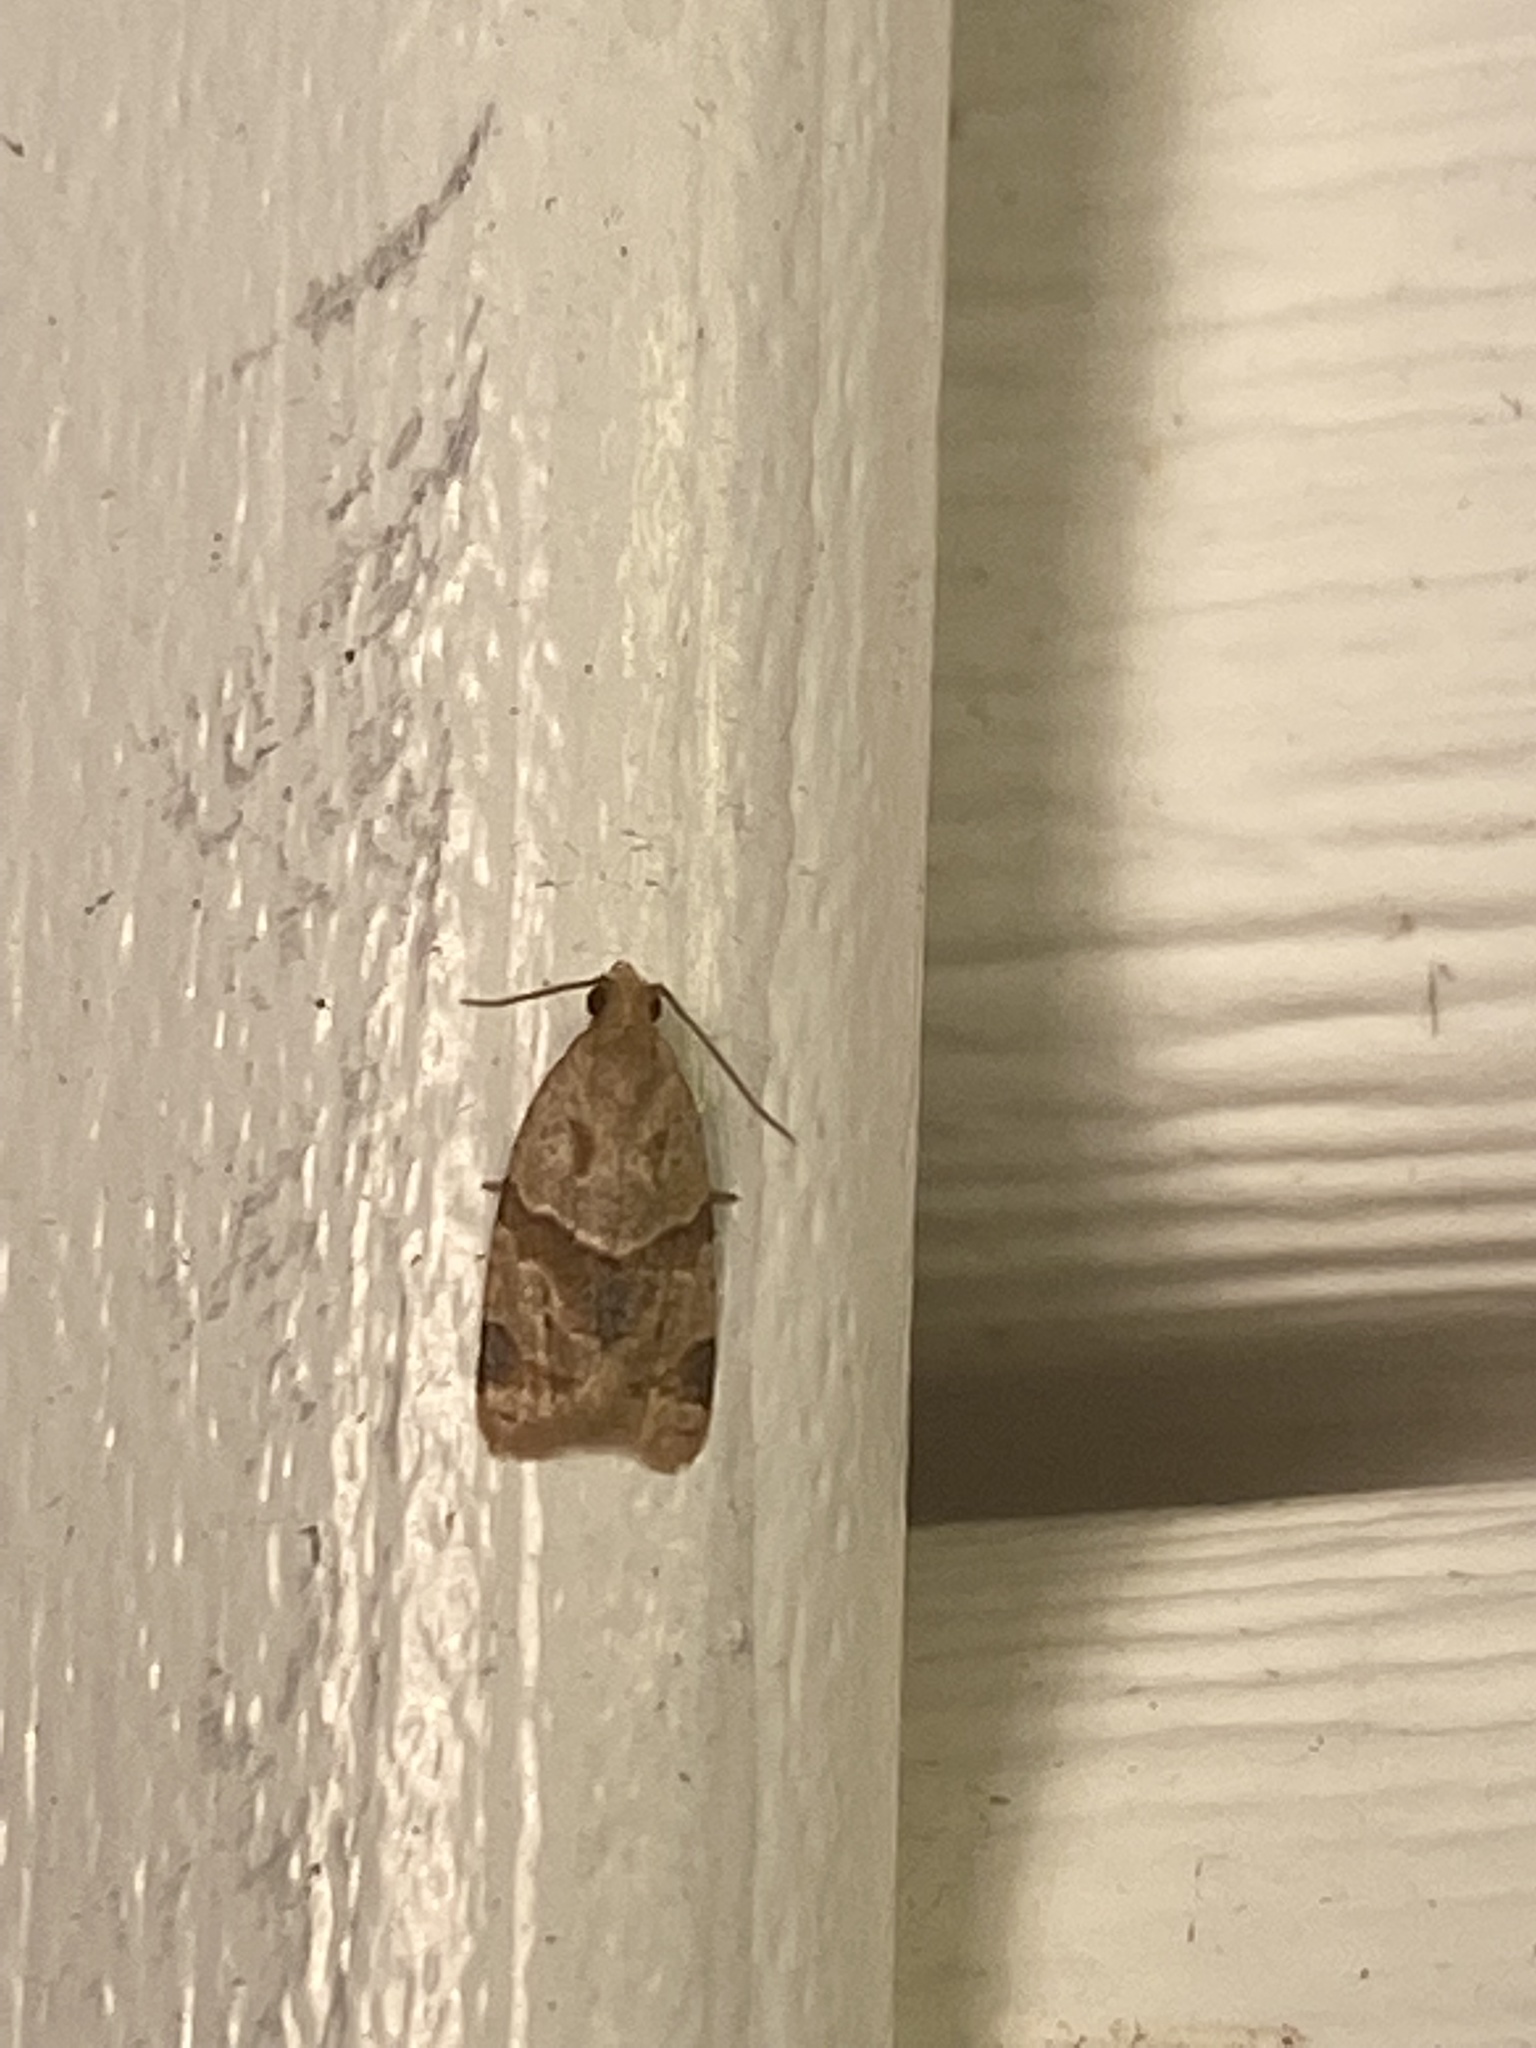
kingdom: Animalia
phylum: Arthropoda
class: Insecta
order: Lepidoptera
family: Tortricidae
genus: Clepsis
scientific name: Clepsis peritana
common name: Garden tortrix
